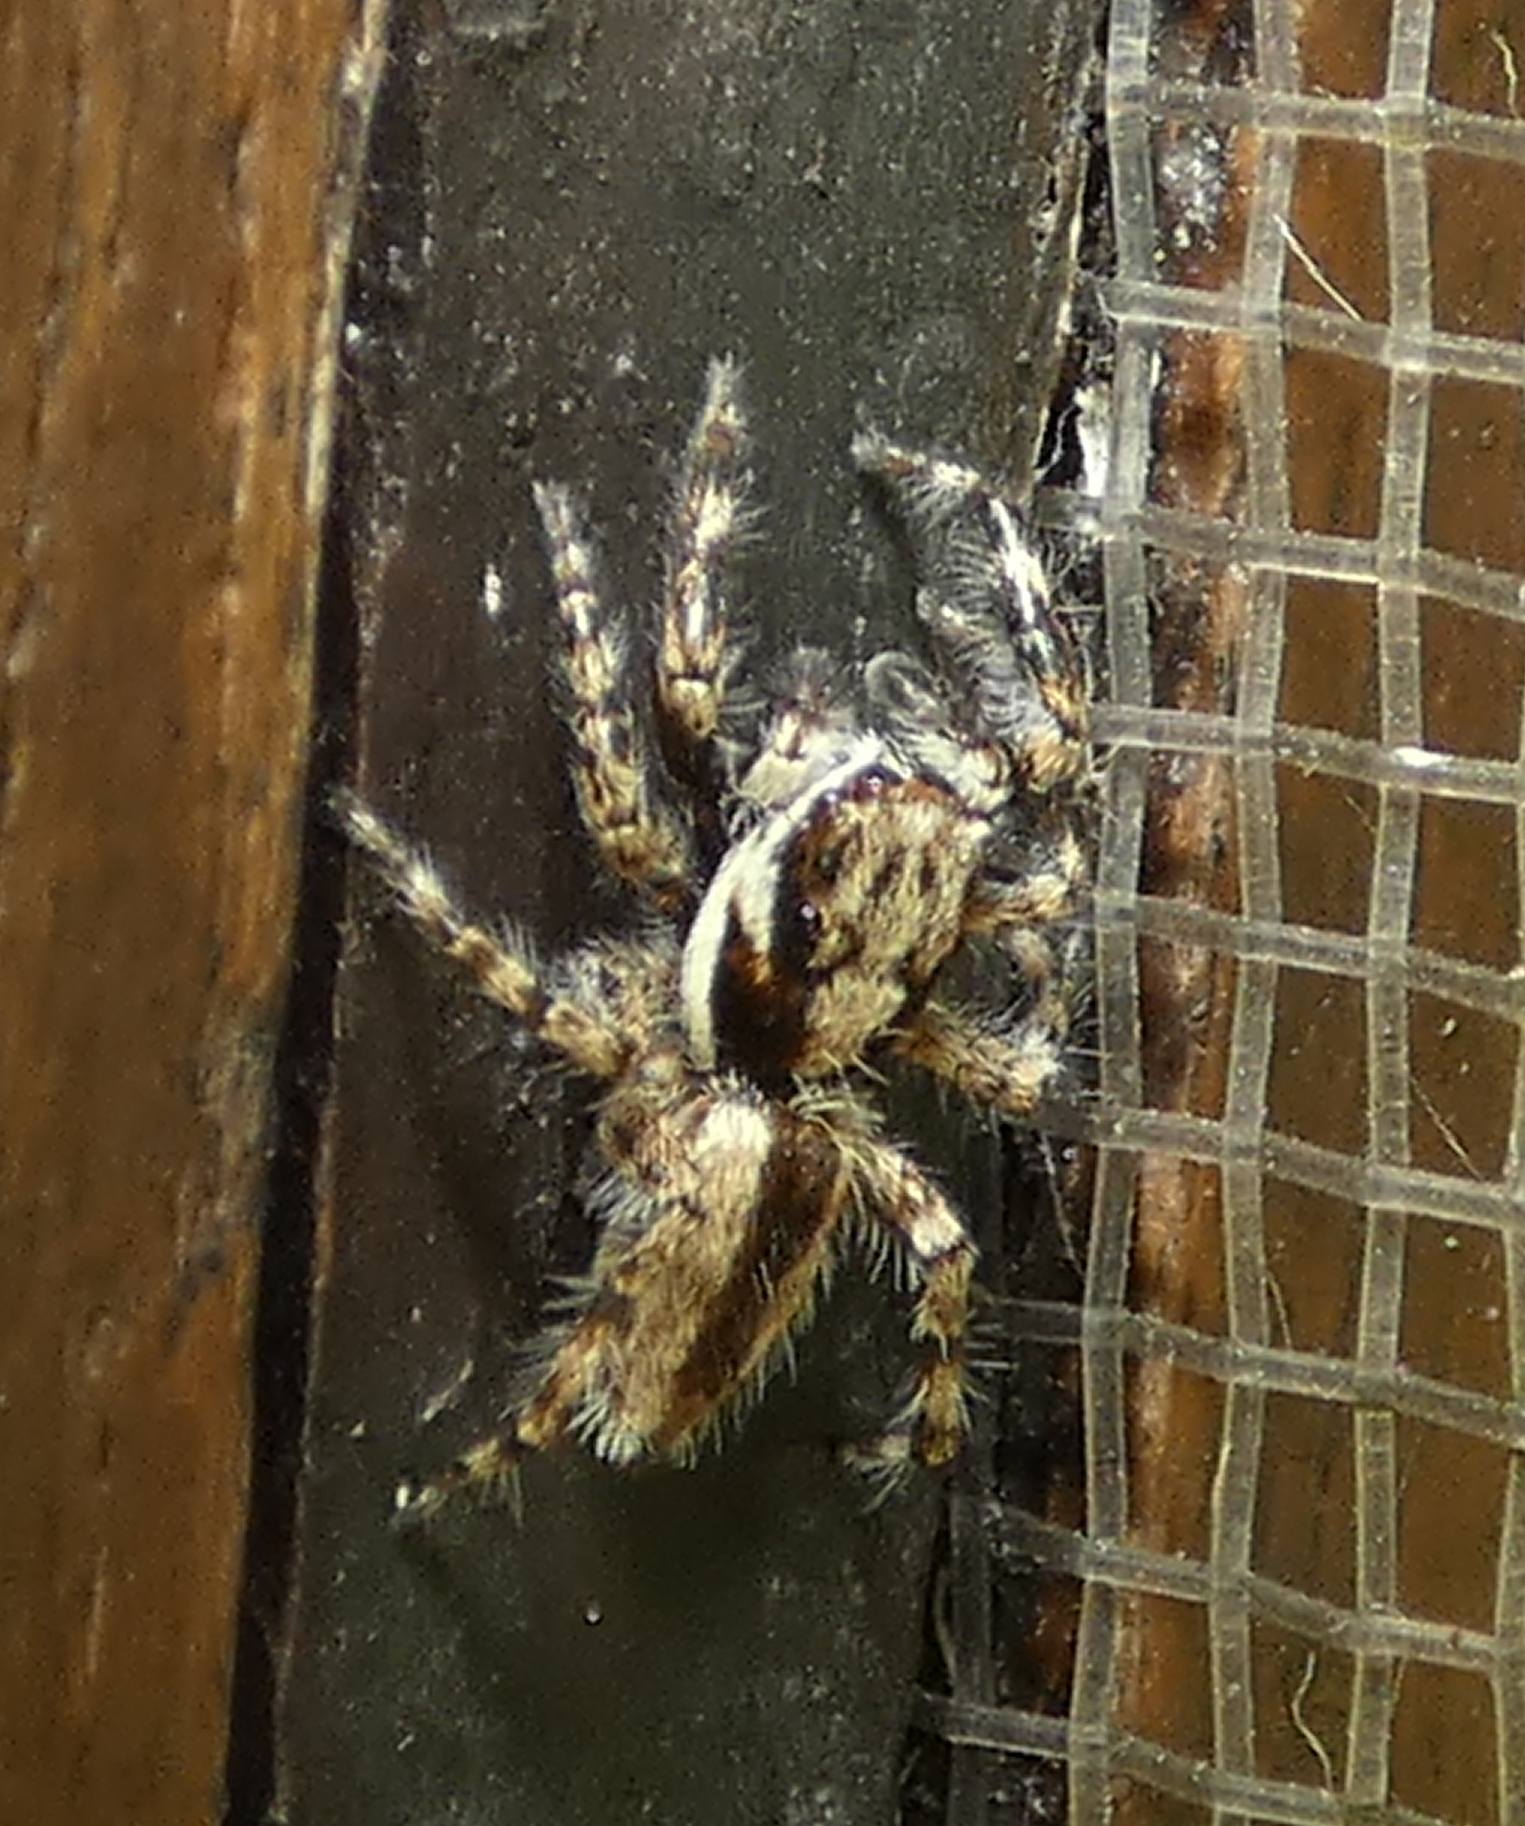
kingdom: Animalia
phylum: Arthropoda
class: Arachnida
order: Araneae
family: Salticidae
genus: Menemerus
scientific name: Menemerus bivittatus
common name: Gray wall jumper
